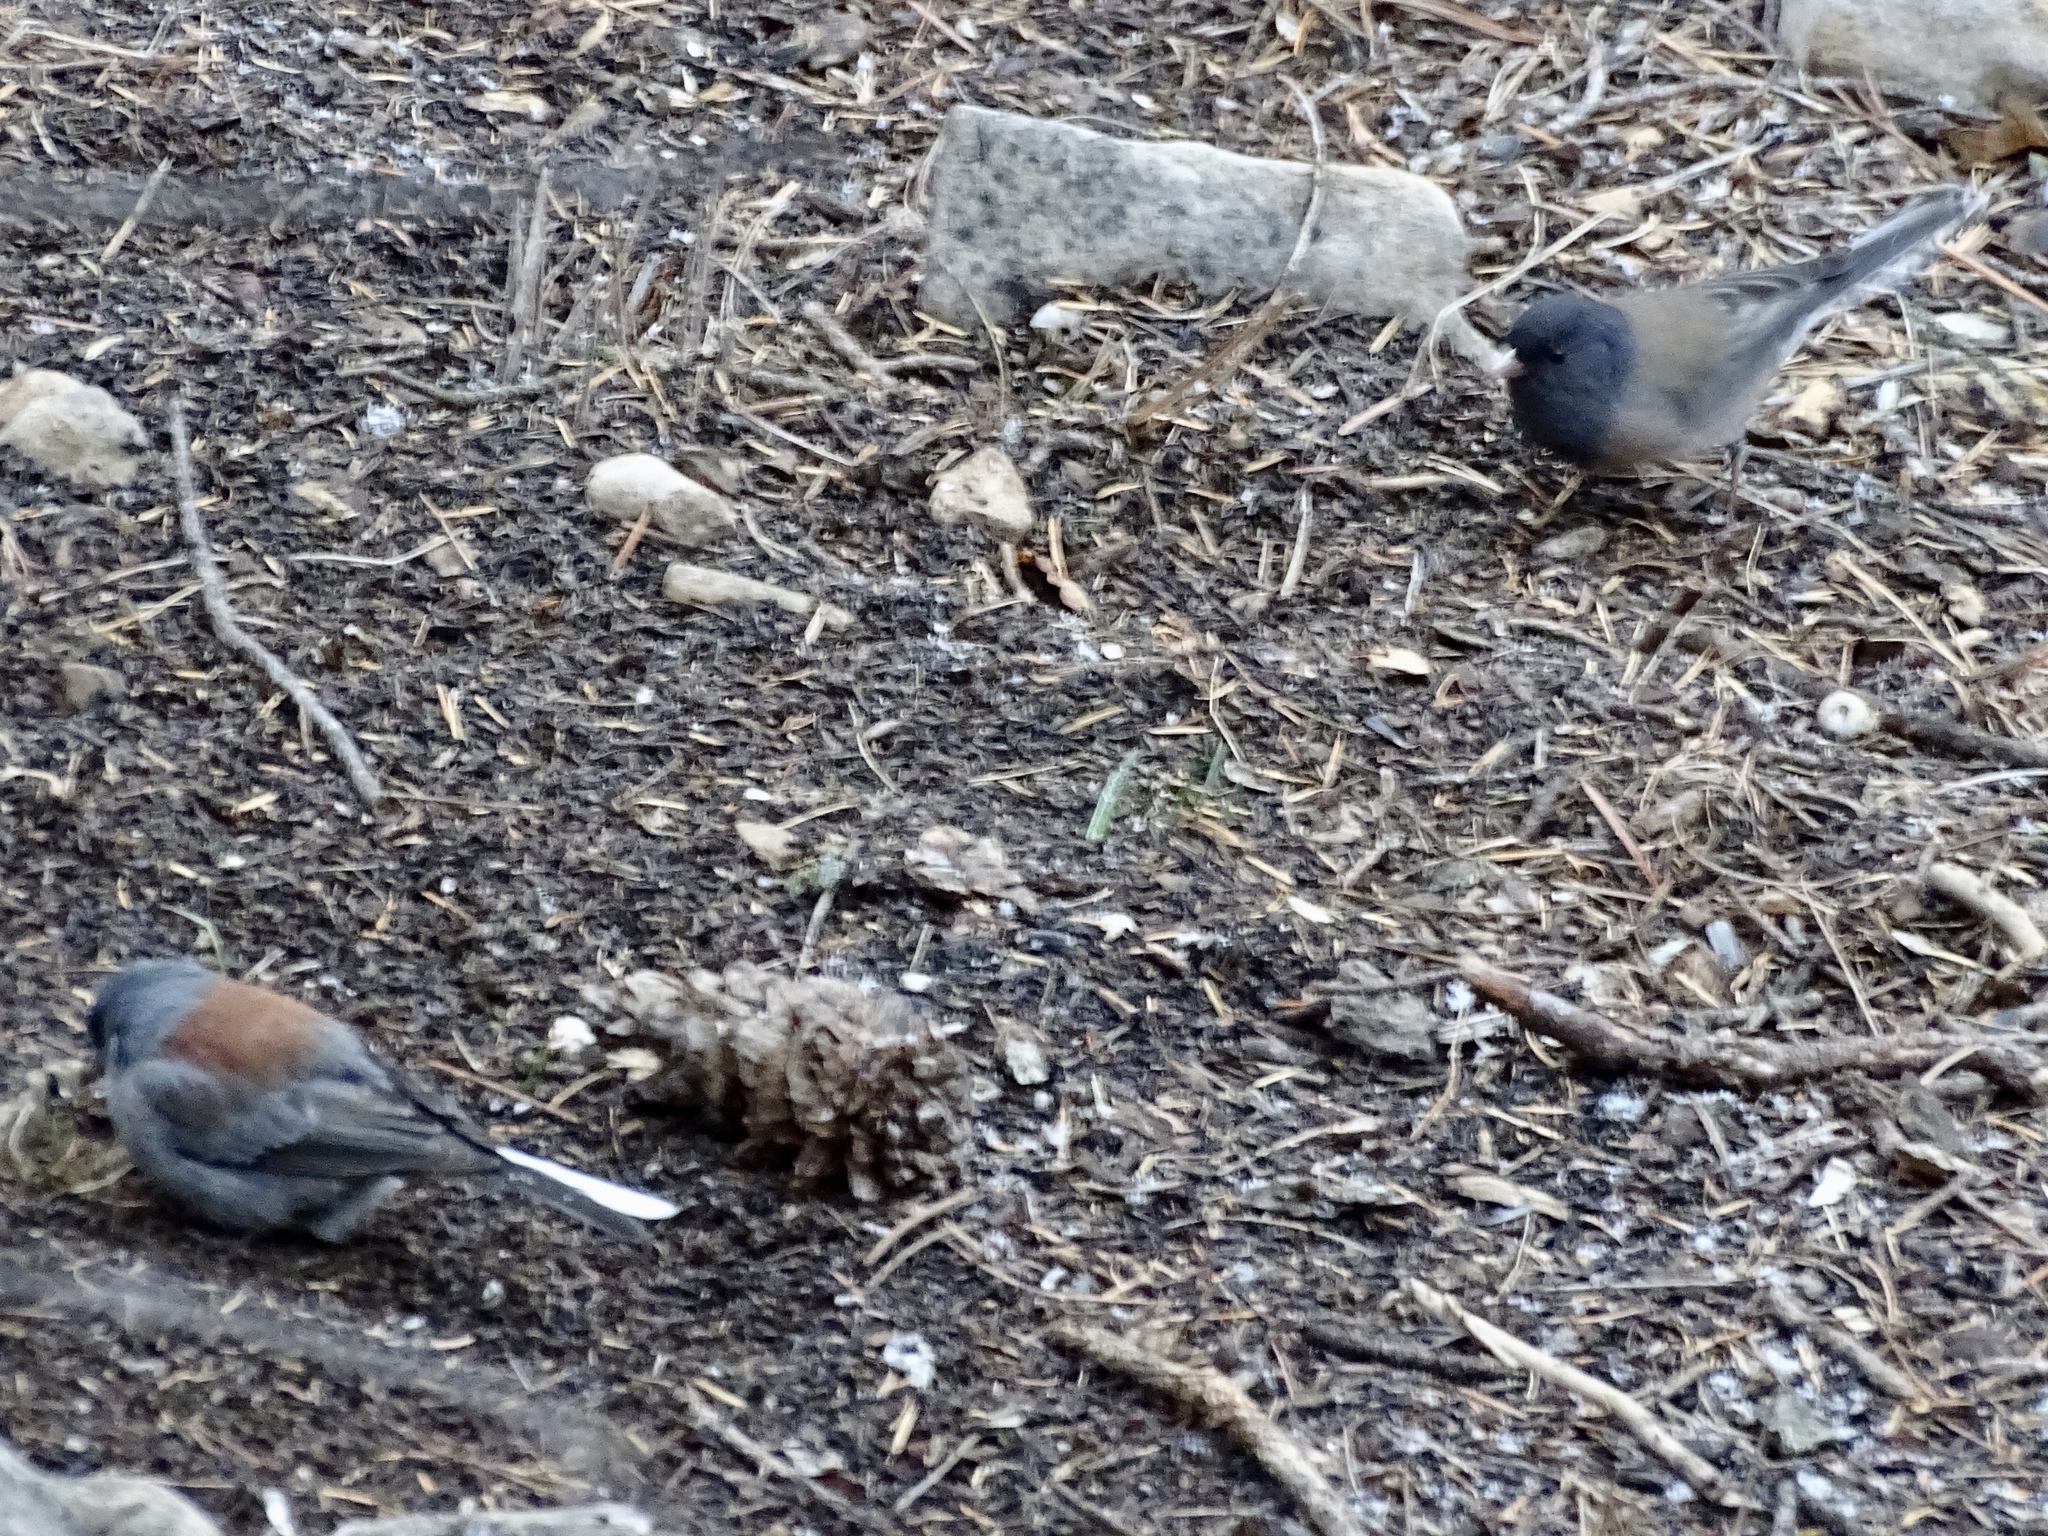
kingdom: Animalia
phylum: Chordata
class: Aves
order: Passeriformes
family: Passerellidae
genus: Junco
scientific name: Junco hyemalis
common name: Dark-eyed junco
